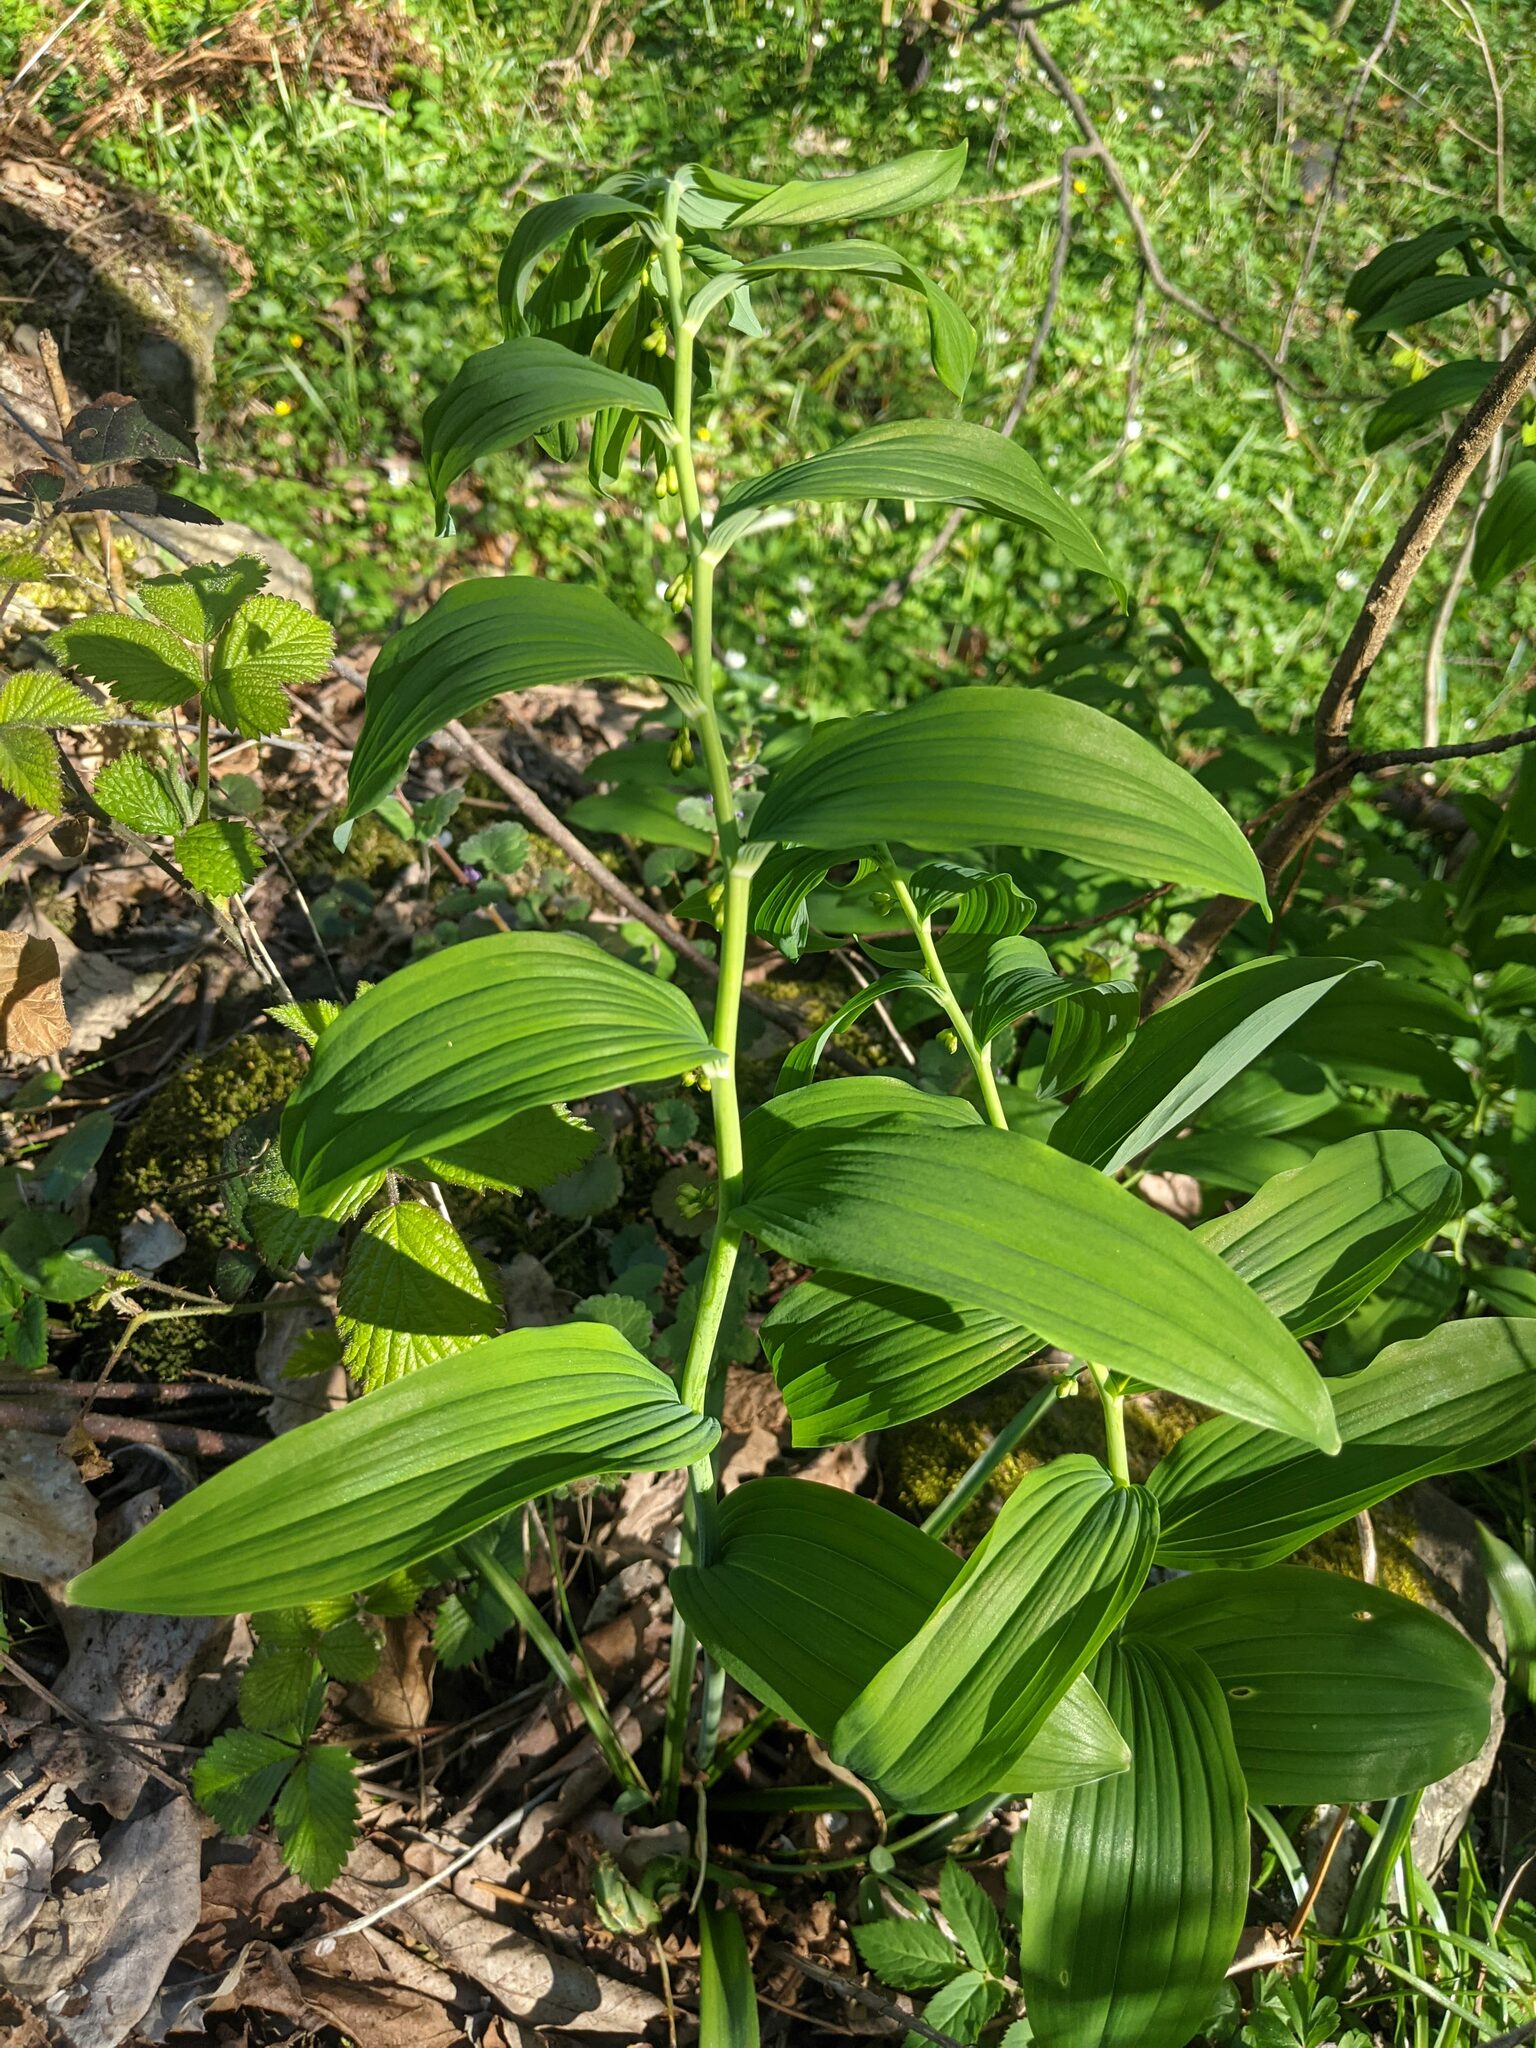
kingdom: Plantae
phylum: Tracheophyta
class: Liliopsida
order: Asparagales
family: Asparagaceae
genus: Polygonatum
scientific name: Polygonatum multiflorum
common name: Solomon's-seal
